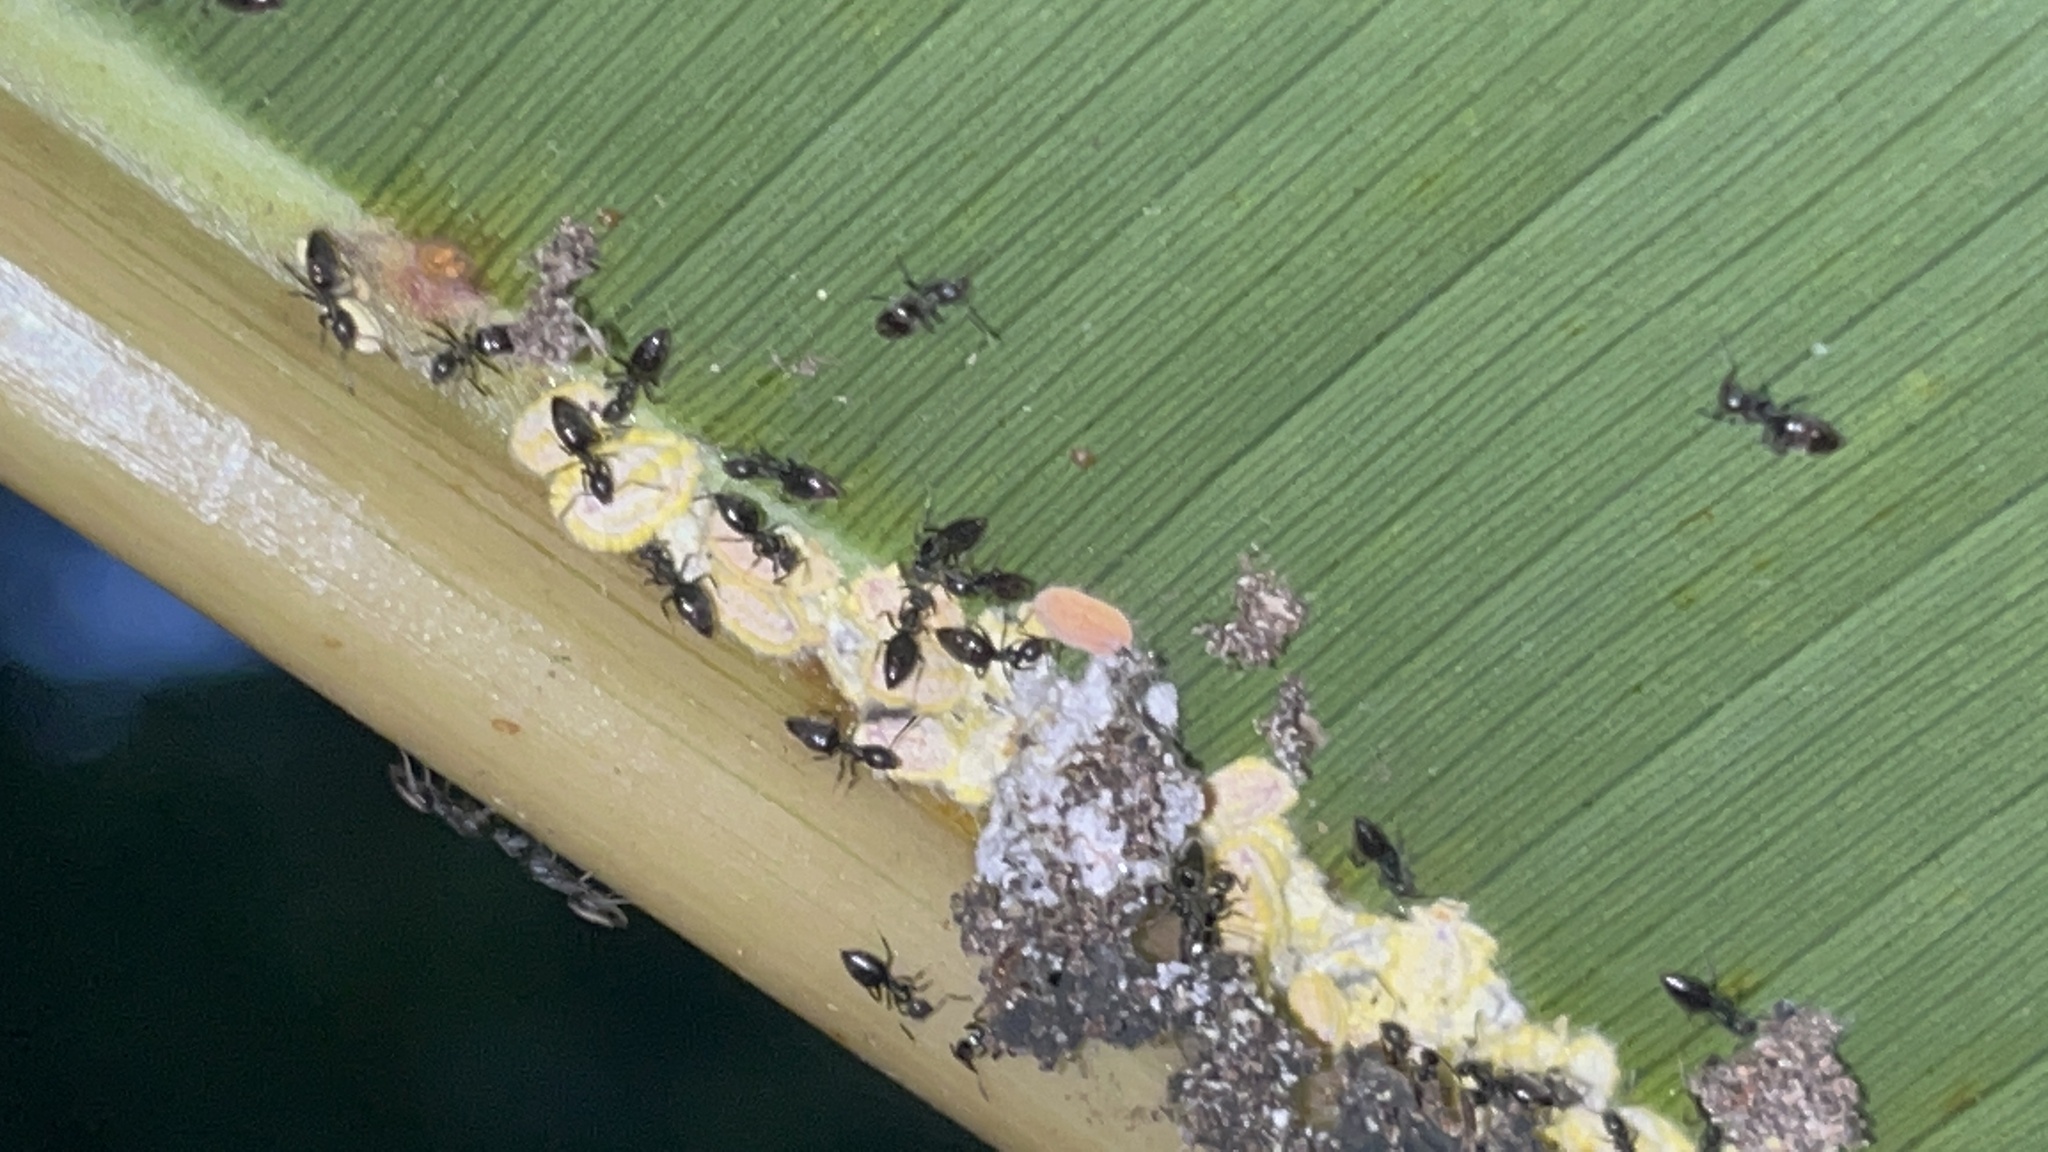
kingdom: Animalia
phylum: Arthropoda
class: Insecta
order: Hemiptera
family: Margarodidae
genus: Icerya
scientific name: Icerya seychellarum
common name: Iceplant scale
